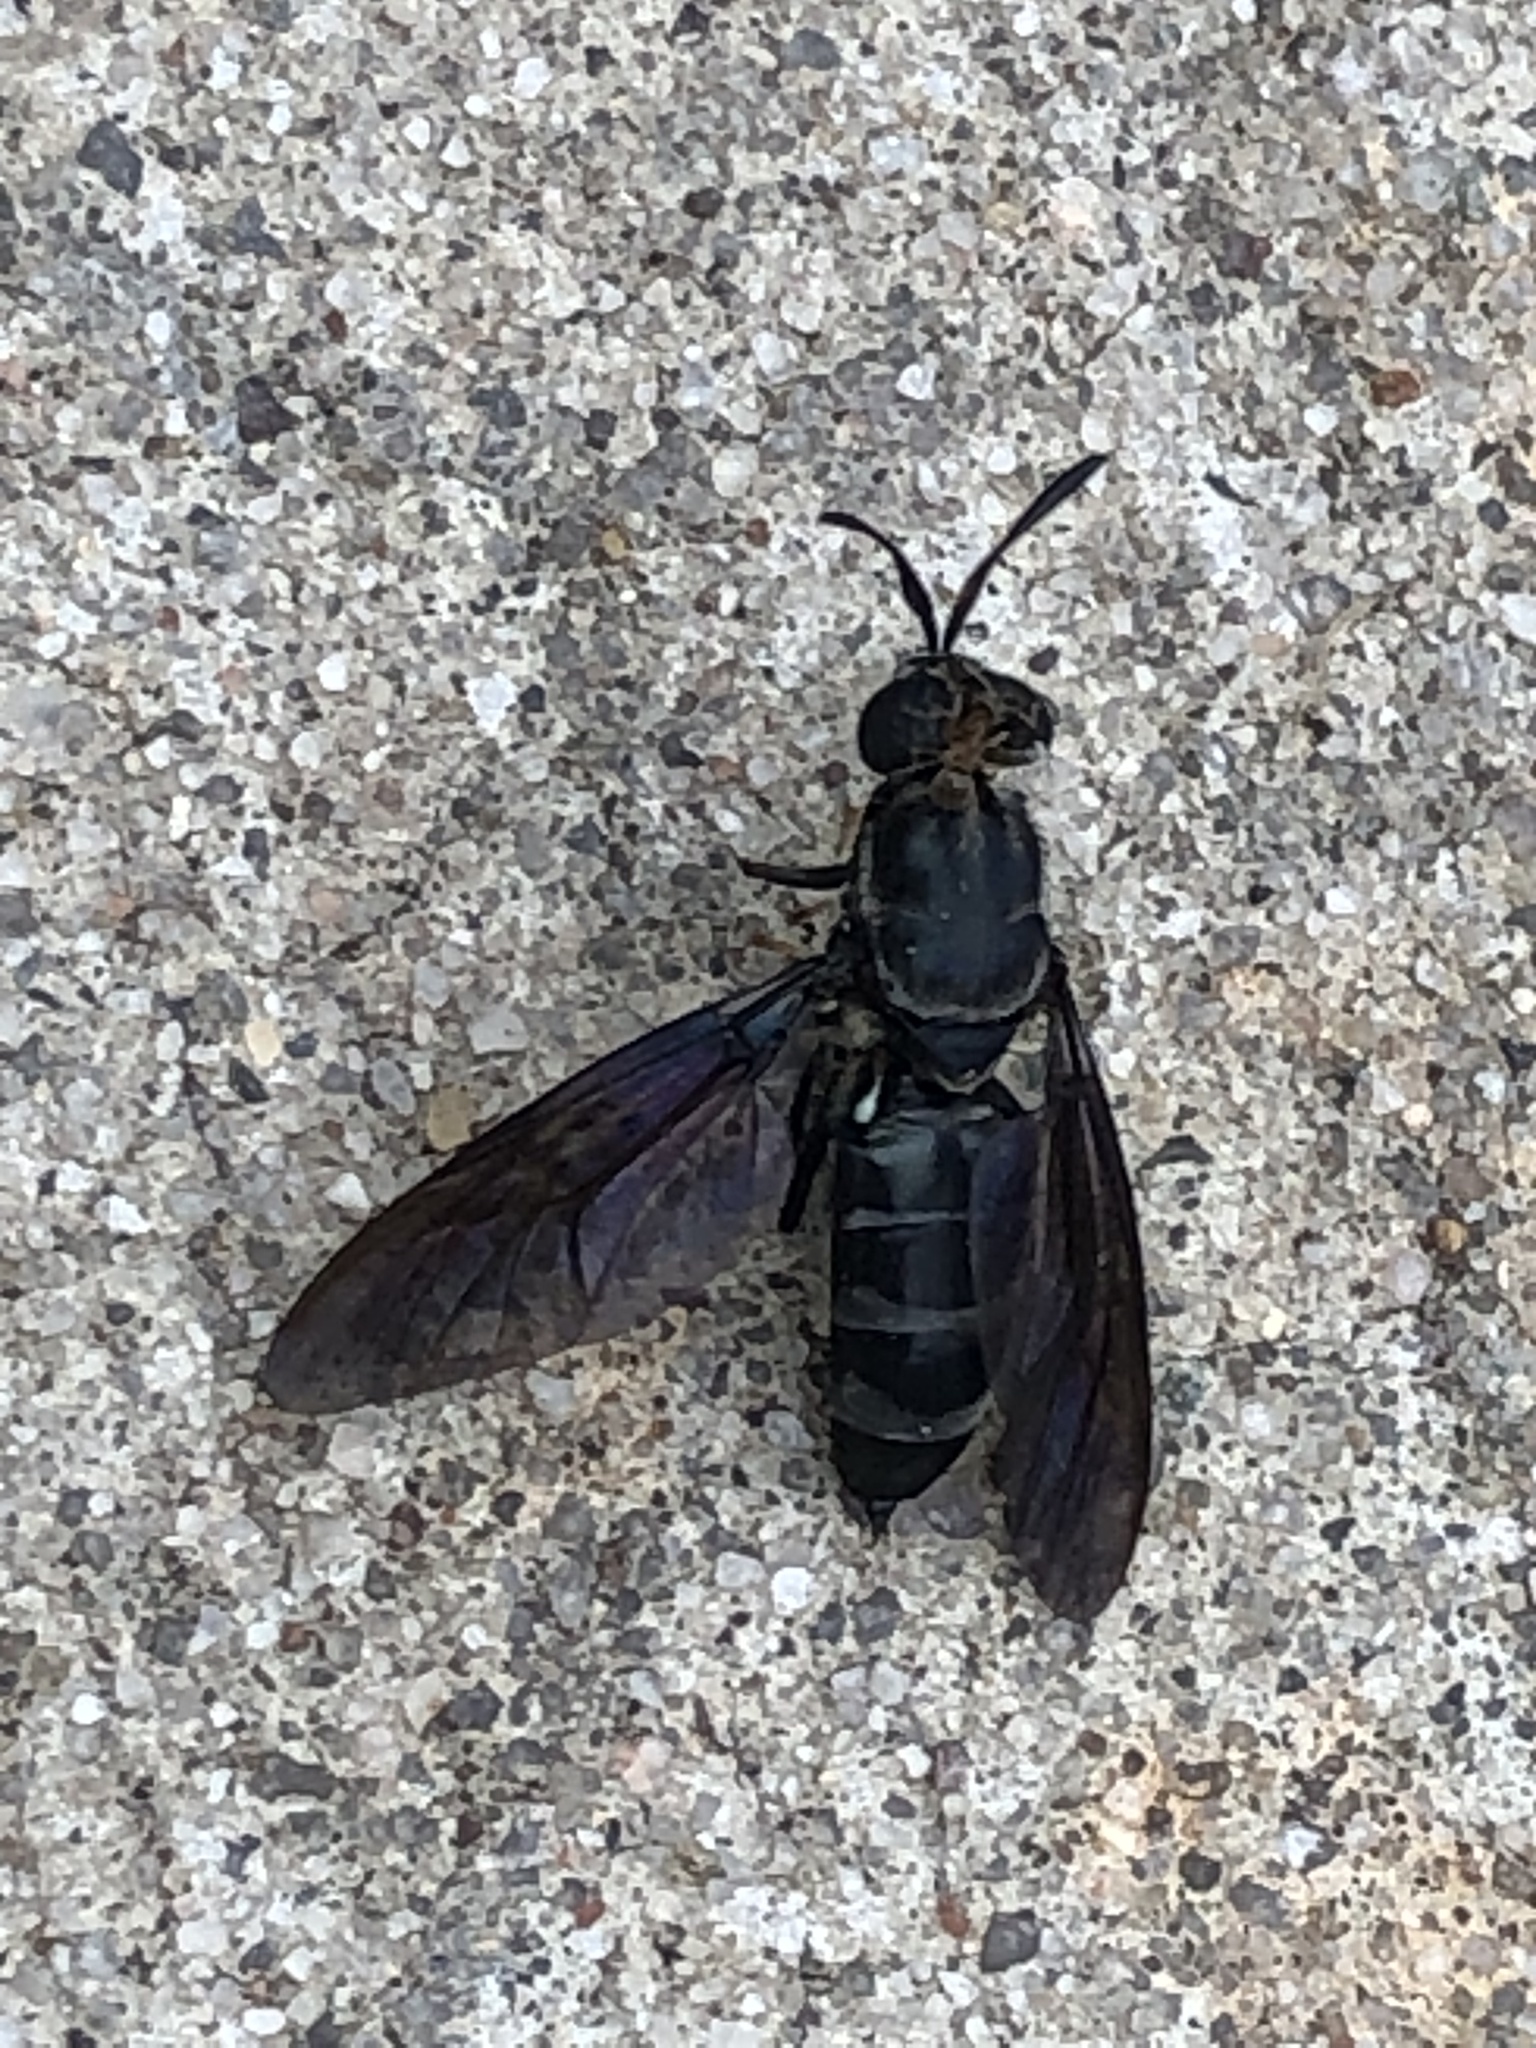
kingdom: Animalia
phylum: Arthropoda
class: Insecta
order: Diptera
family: Stratiomyidae
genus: Hermetia
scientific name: Hermetia illucens
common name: Black soldier fly
